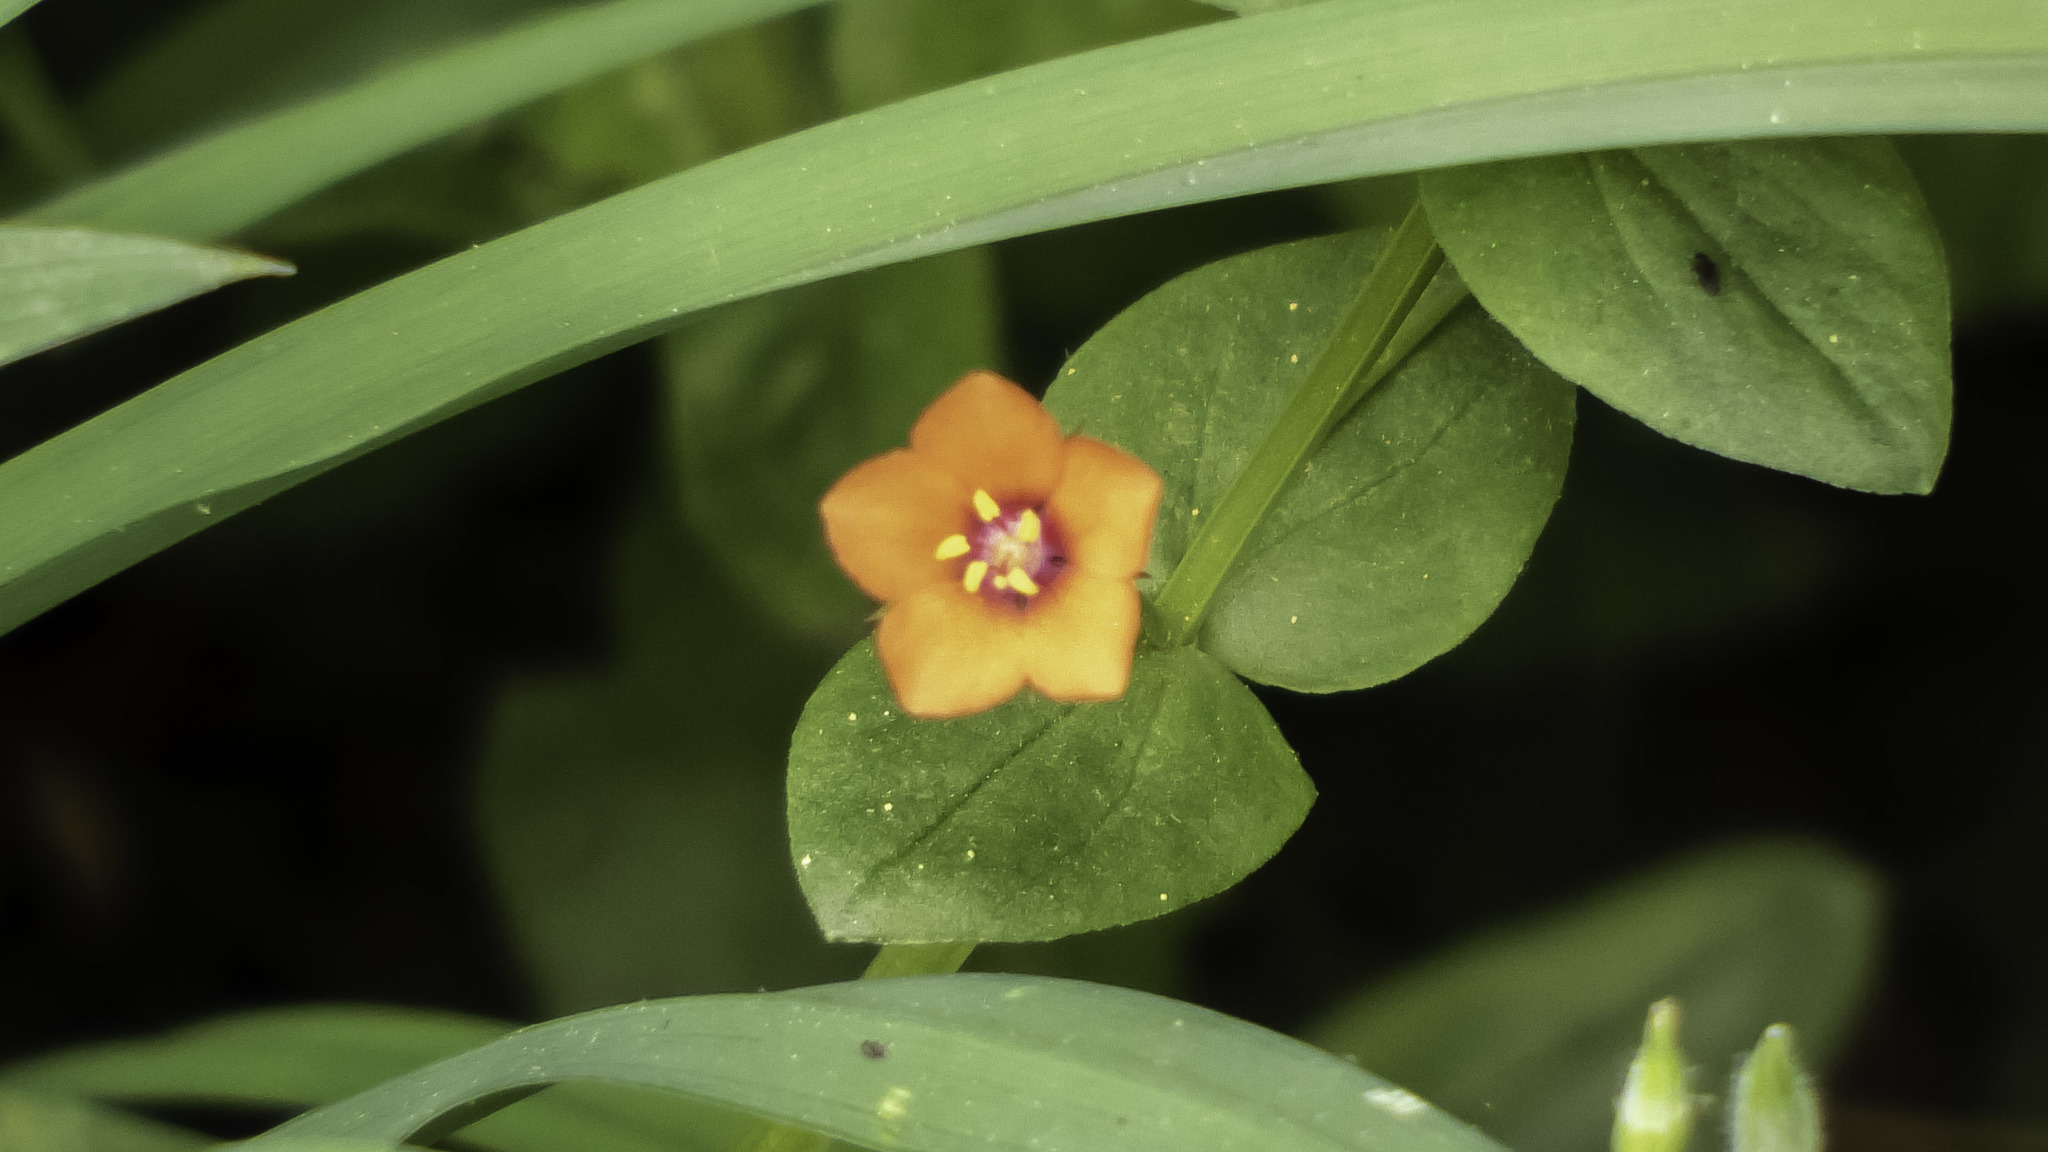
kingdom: Plantae
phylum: Tracheophyta
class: Magnoliopsida
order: Ericales
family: Primulaceae
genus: Lysimachia
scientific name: Lysimachia arvensis
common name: Scarlet pimpernel
